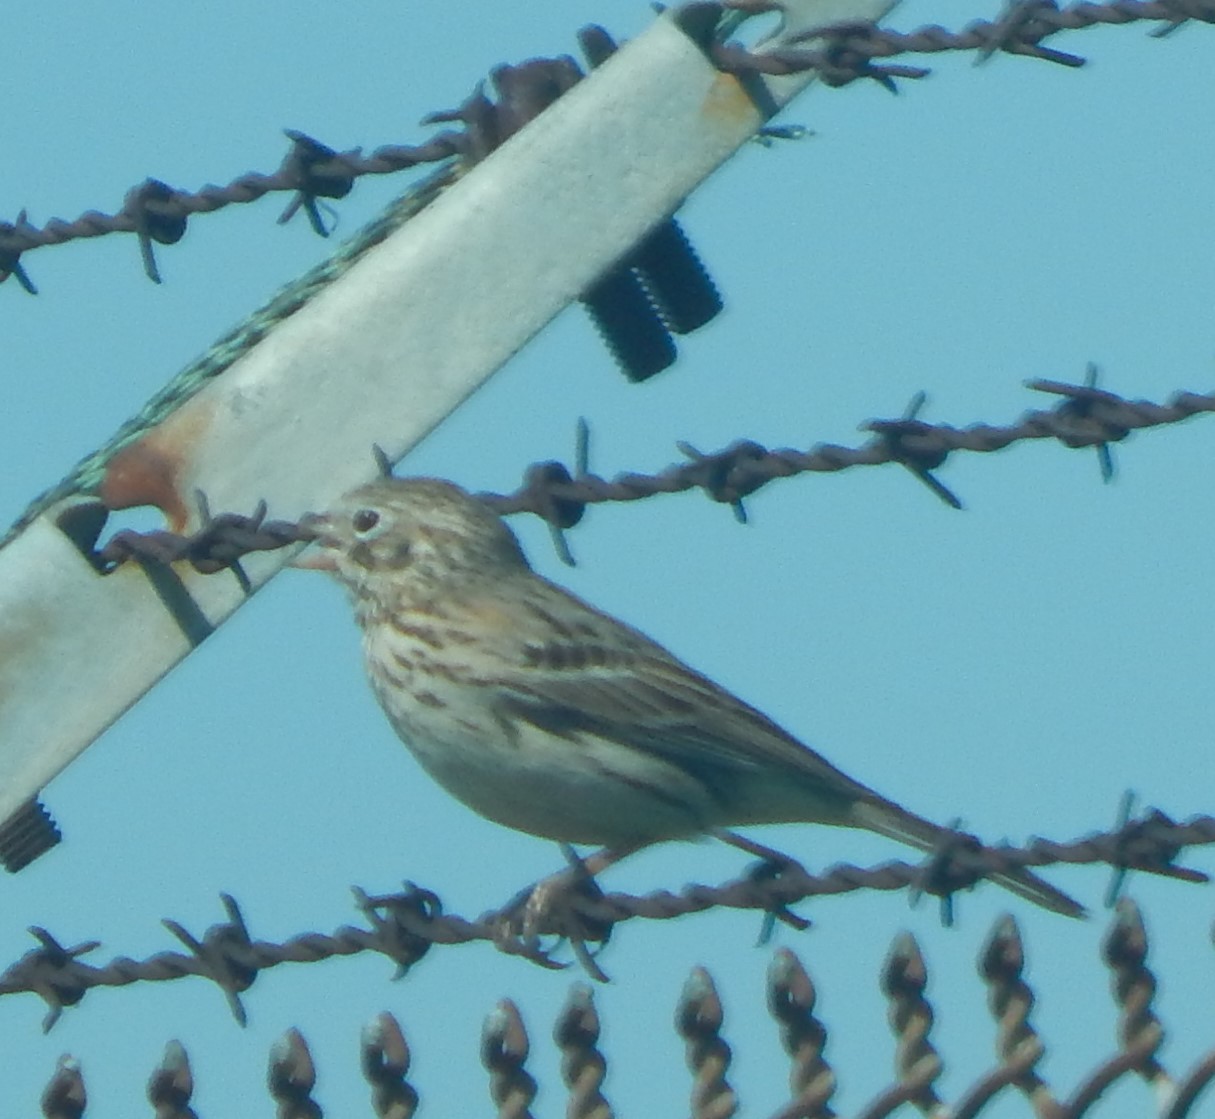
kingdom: Animalia
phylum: Chordata
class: Aves
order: Passeriformes
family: Passerellidae
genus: Pooecetes
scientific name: Pooecetes gramineus
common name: Vesper sparrow
